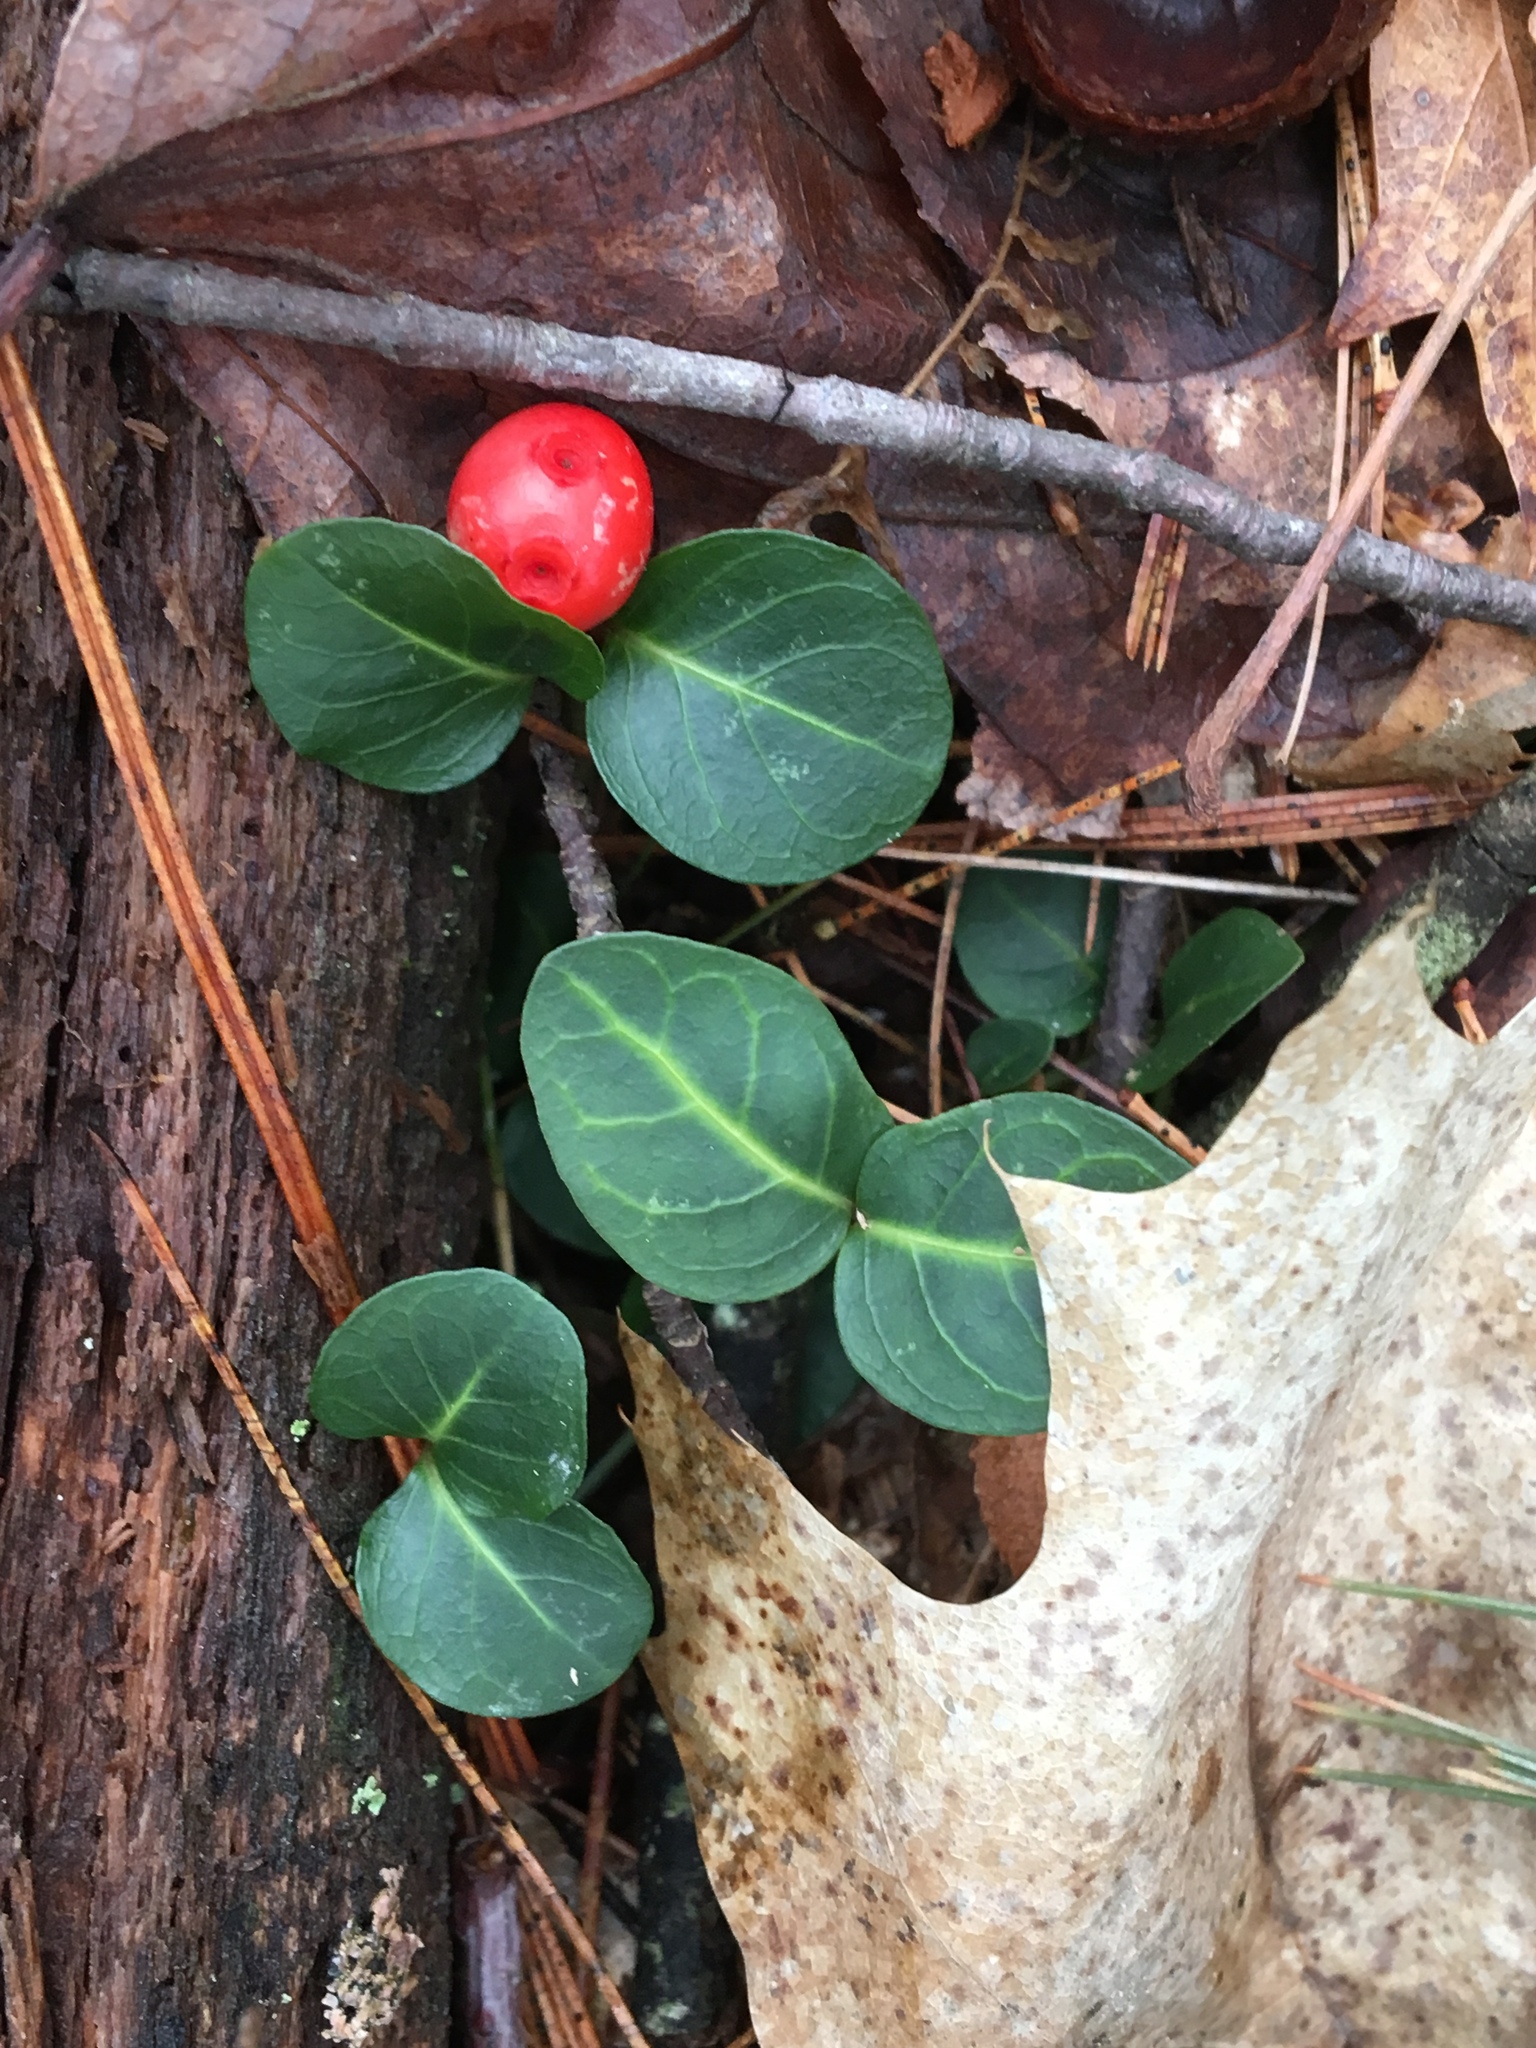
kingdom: Plantae
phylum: Tracheophyta
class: Magnoliopsida
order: Gentianales
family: Rubiaceae
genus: Mitchella
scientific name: Mitchella repens
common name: Partridge-berry
